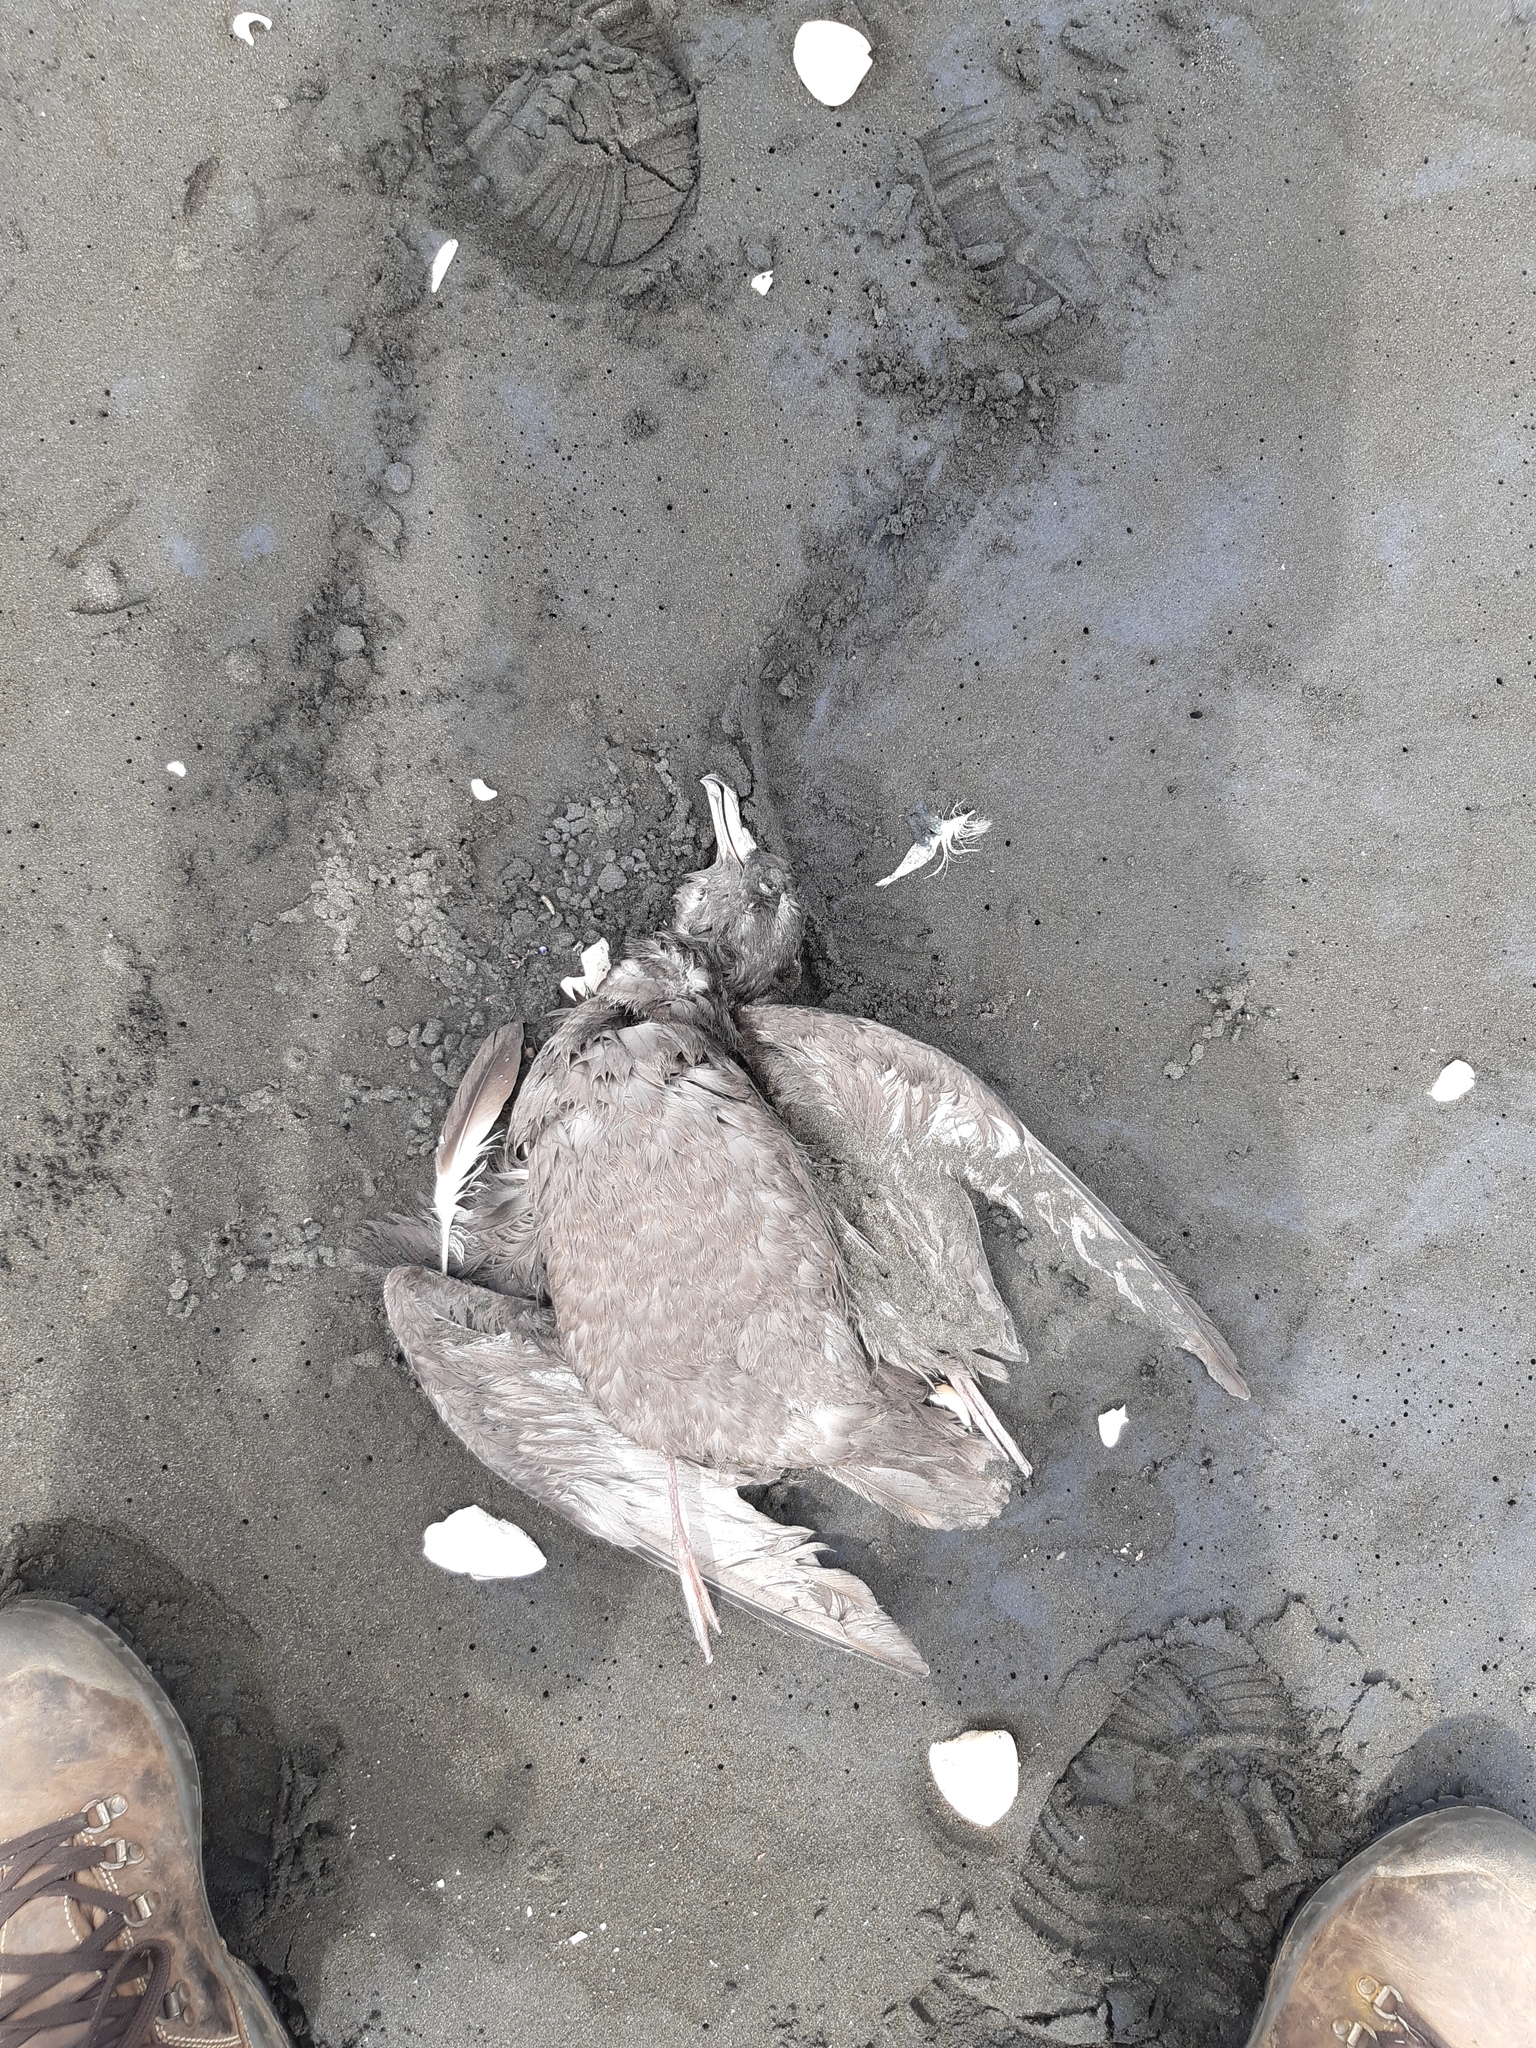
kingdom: Animalia
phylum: Chordata
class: Aves
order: Procellariiformes
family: Procellariidae
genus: Puffinus
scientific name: Puffinus carneipes
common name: Flesh-footed shearwater
